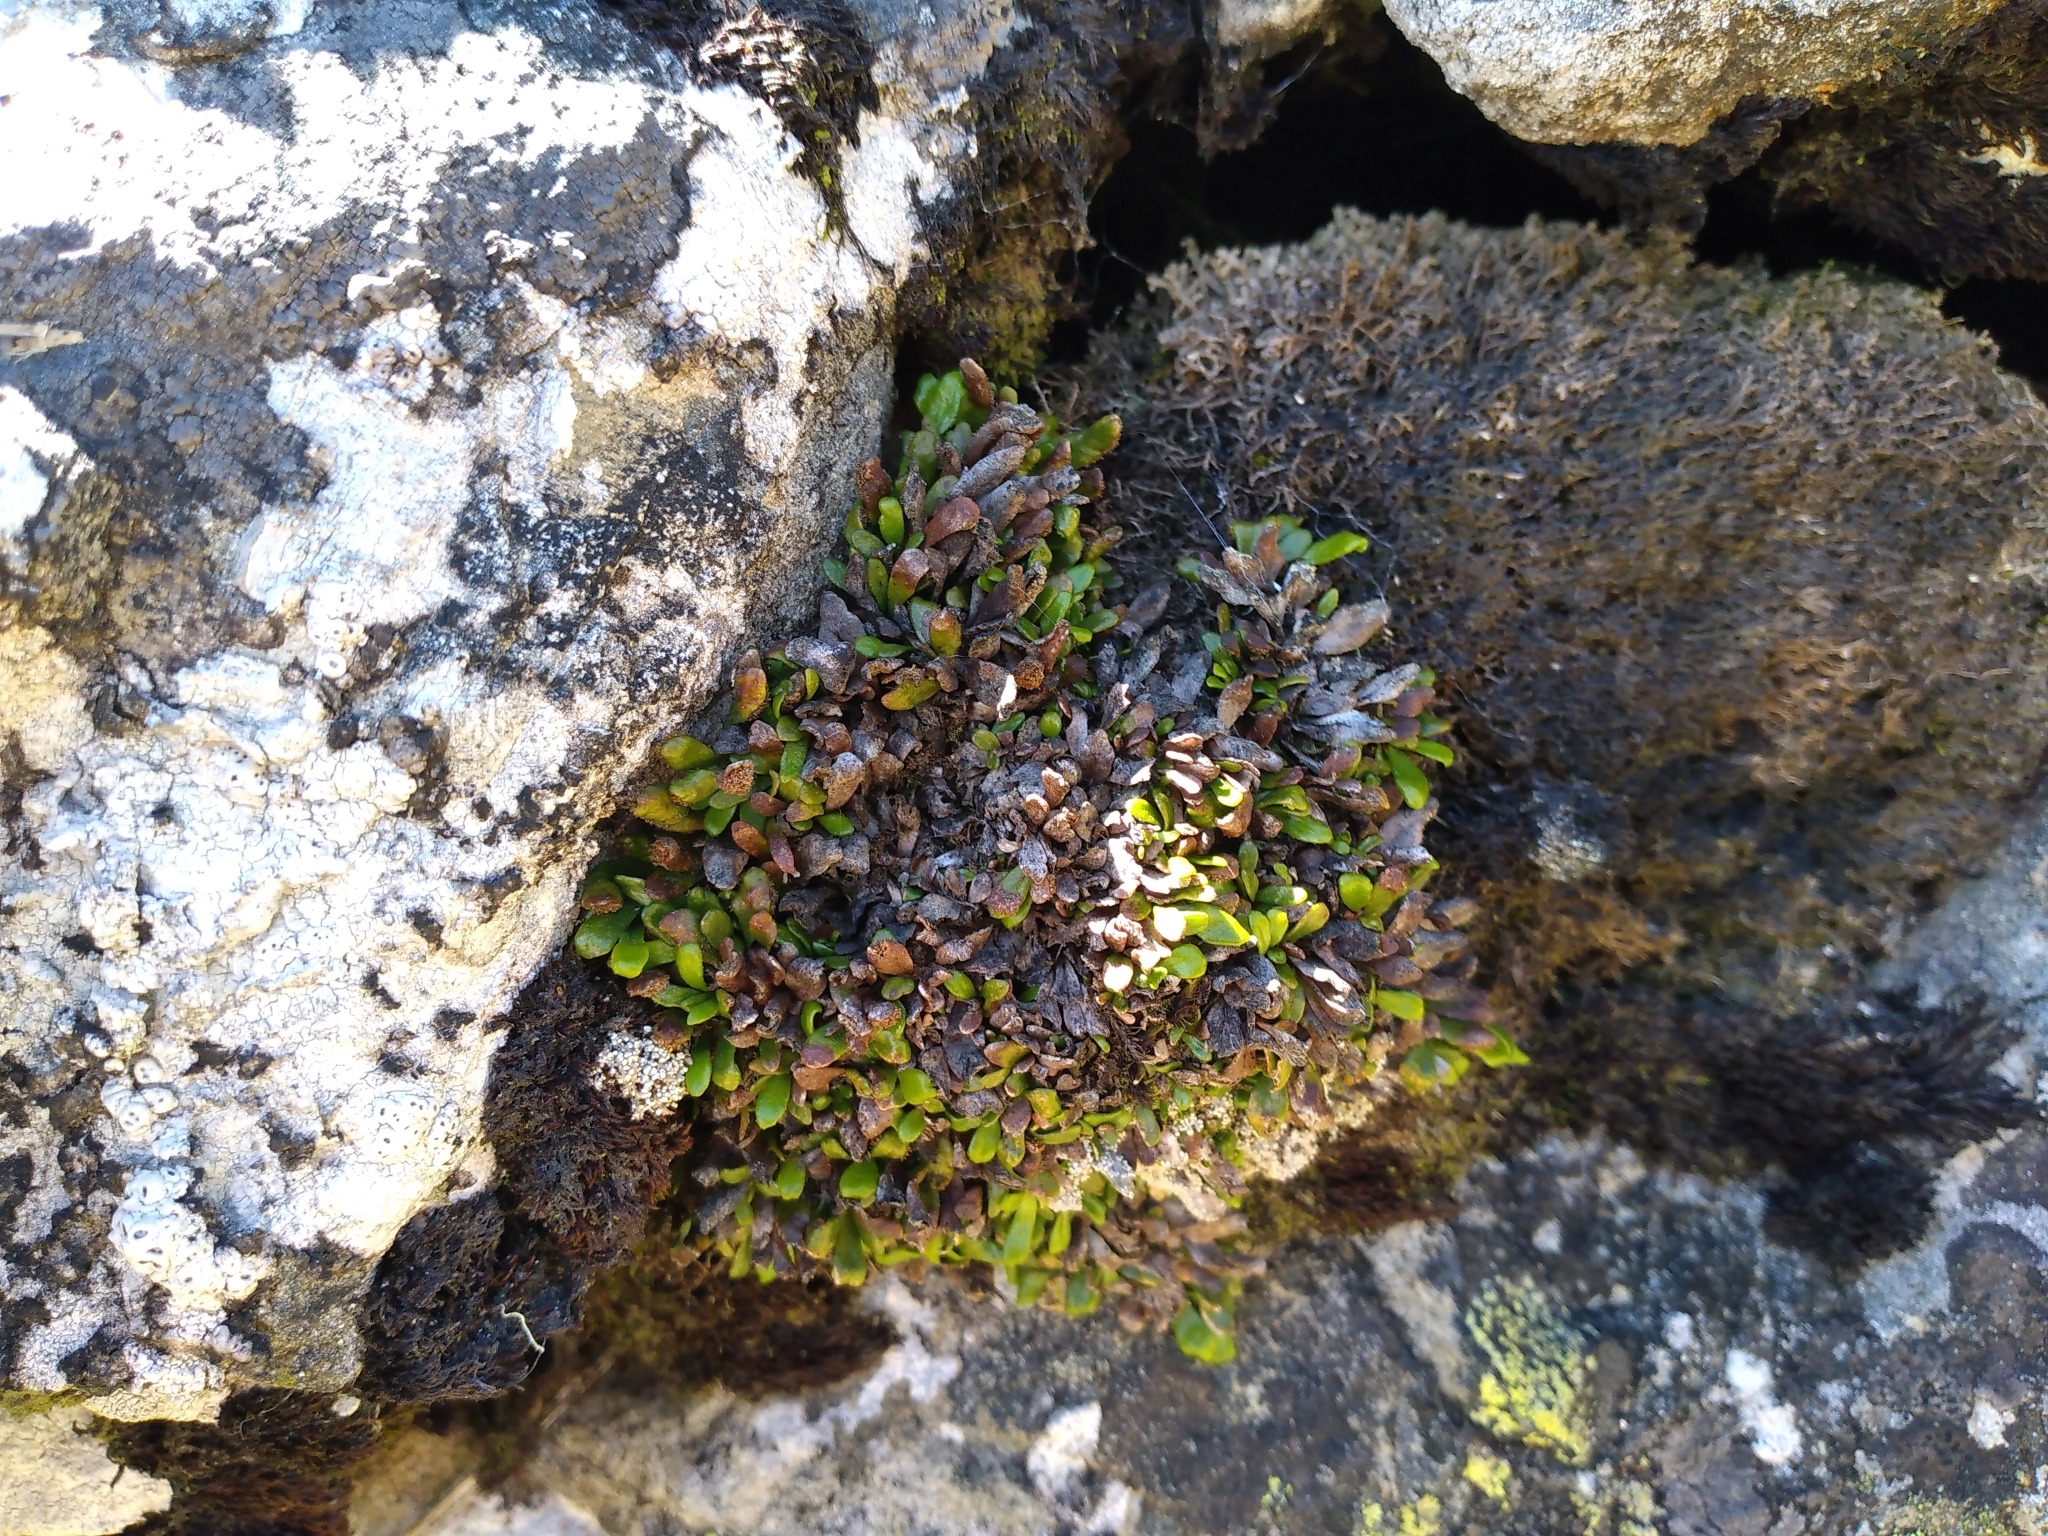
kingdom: Plantae
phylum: Tracheophyta
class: Polypodiopsida
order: Polypodiales
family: Polypodiaceae
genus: Notogrammitis
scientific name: Notogrammitis crassior
